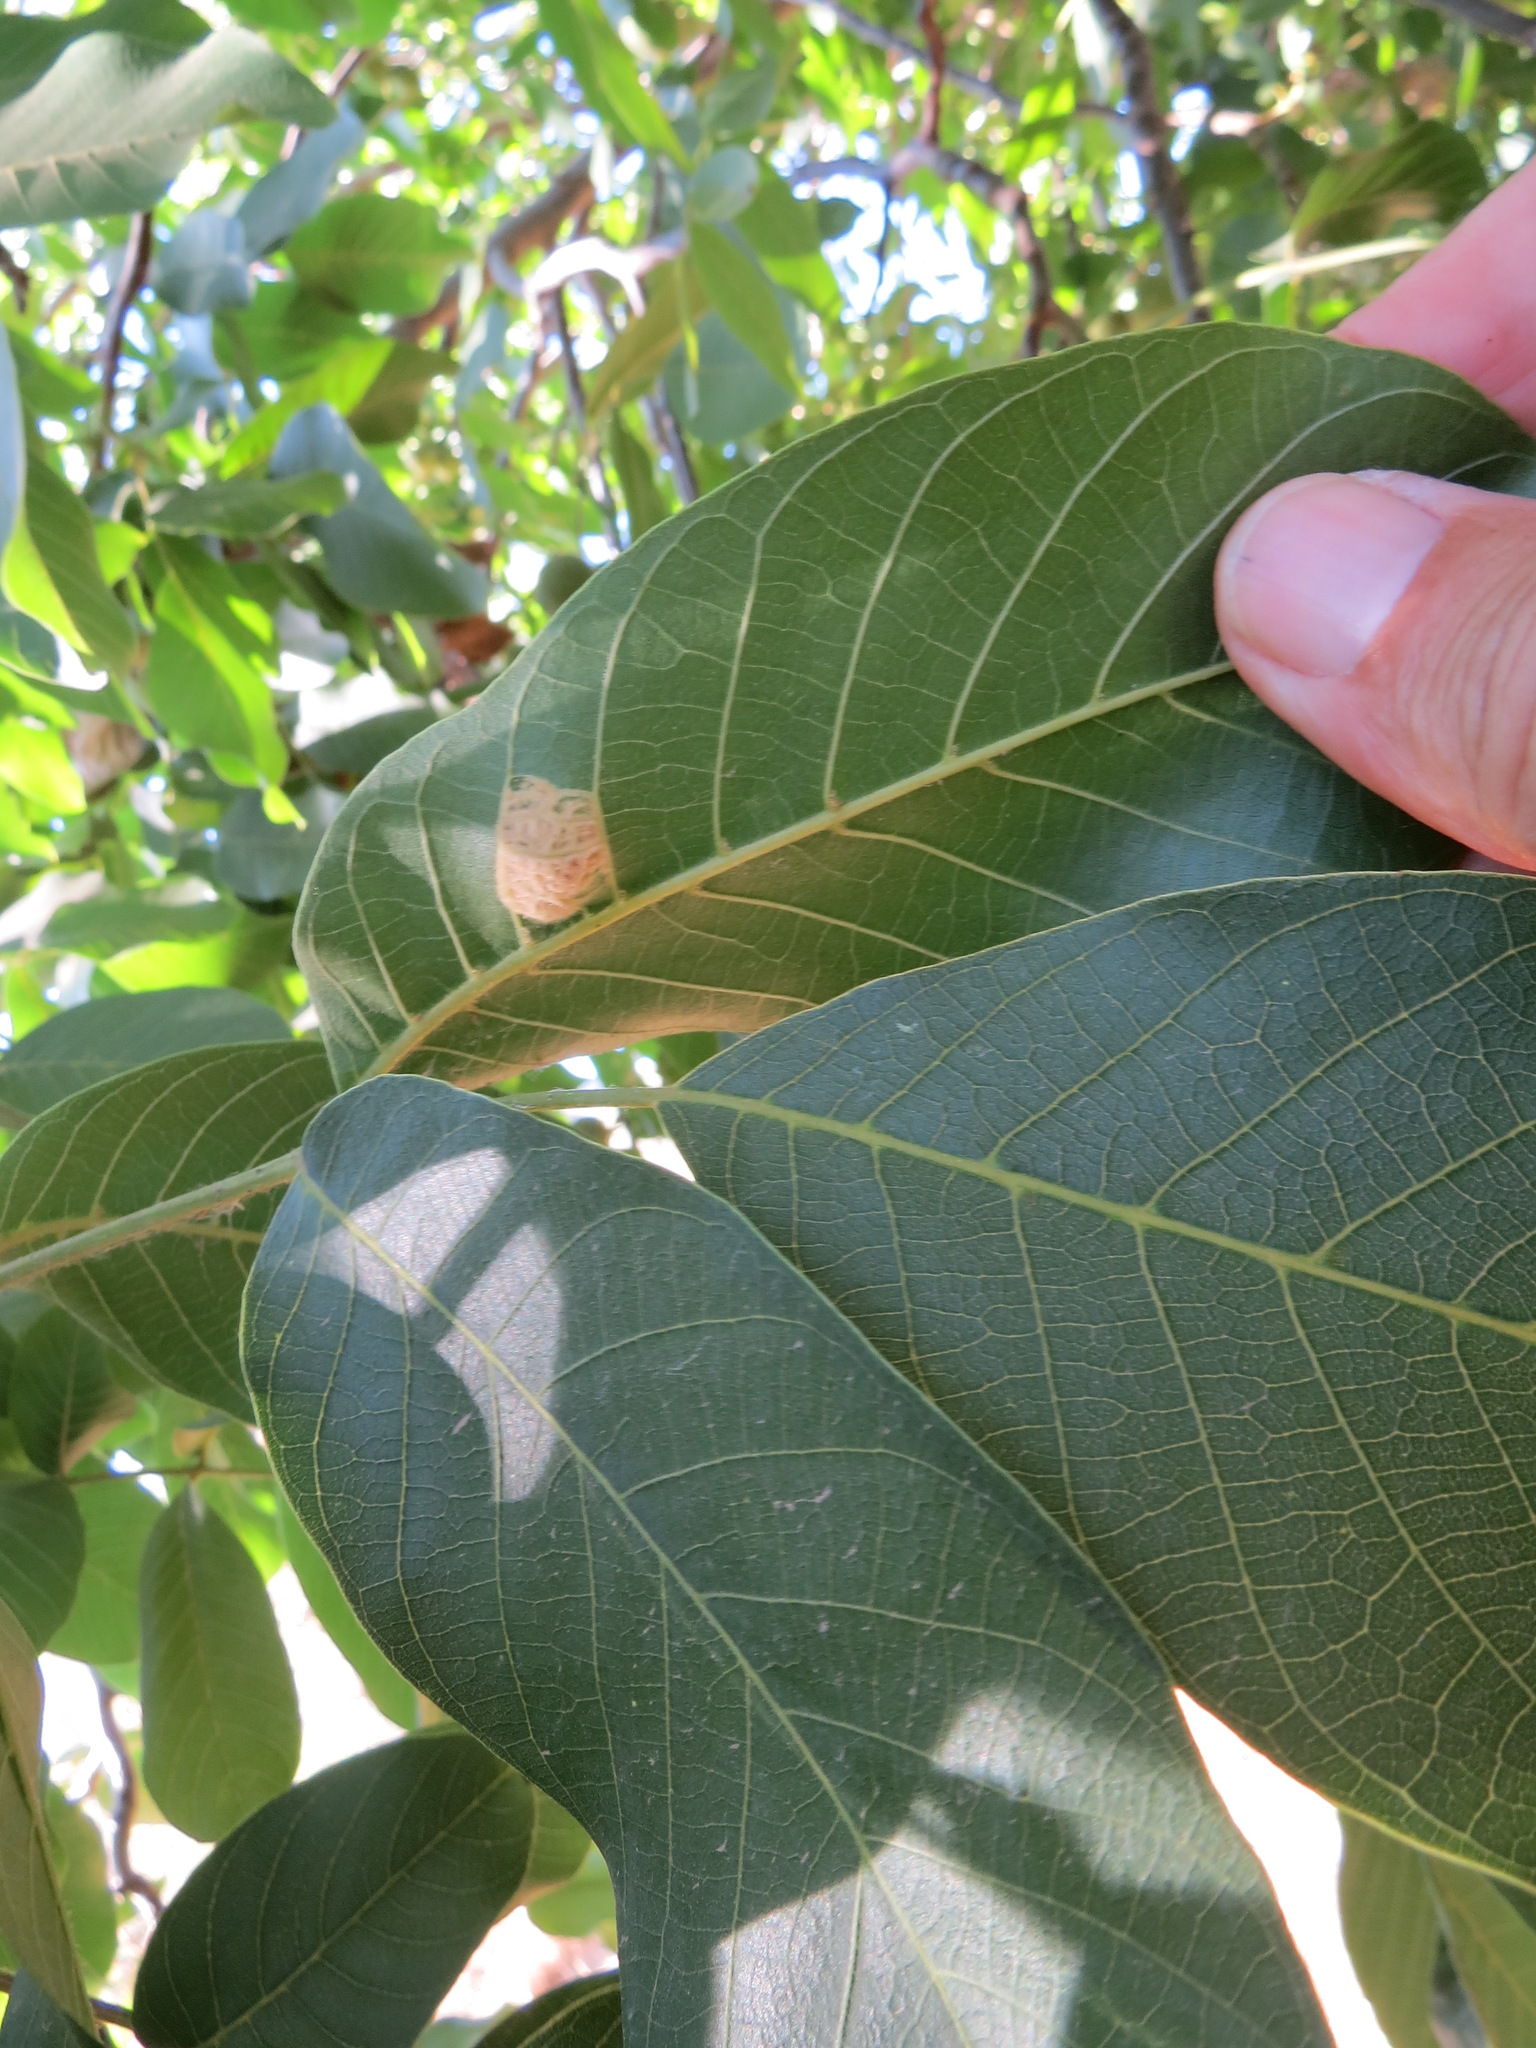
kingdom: Animalia
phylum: Arthropoda
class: Arachnida
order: Trombidiformes
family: Eriophyidae
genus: Aceria
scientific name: Aceria erinea
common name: Persian walnut erineum mite
